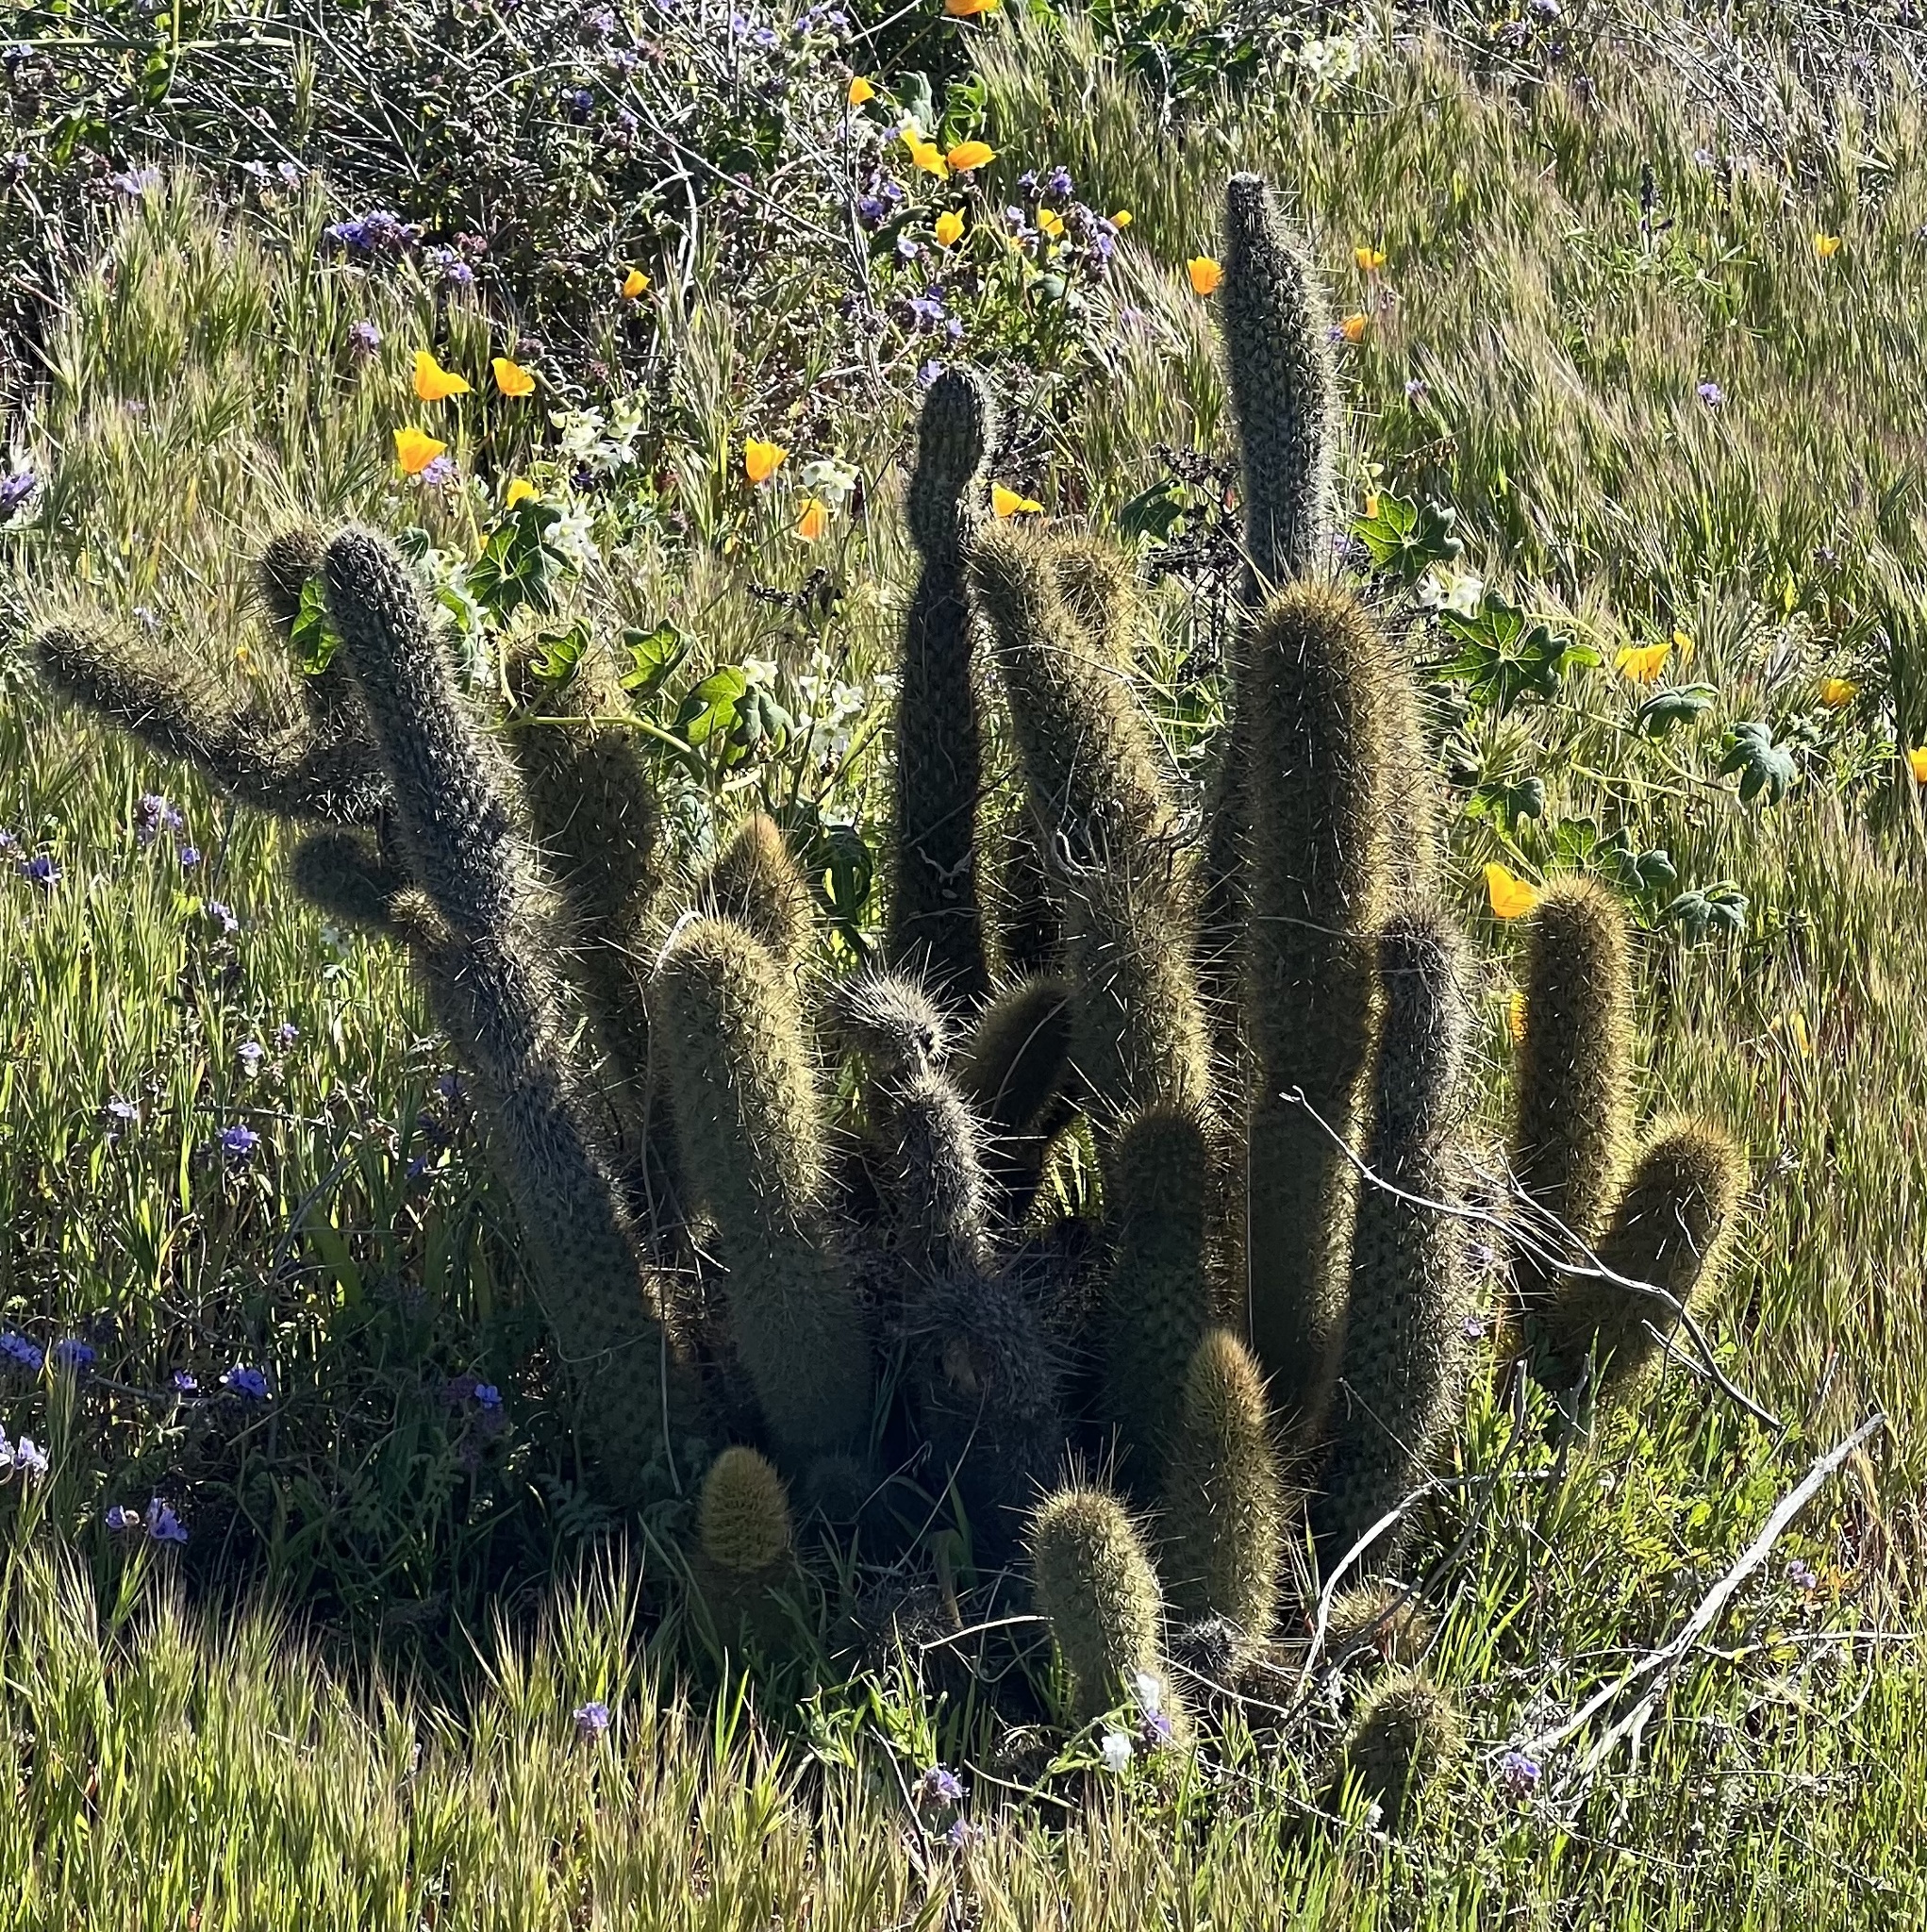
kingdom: Plantae
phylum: Tracheophyta
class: Magnoliopsida
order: Caryophyllales
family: Cactaceae
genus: Bergerocactus
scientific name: Bergerocactus emoryi
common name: Golden snakecactus
